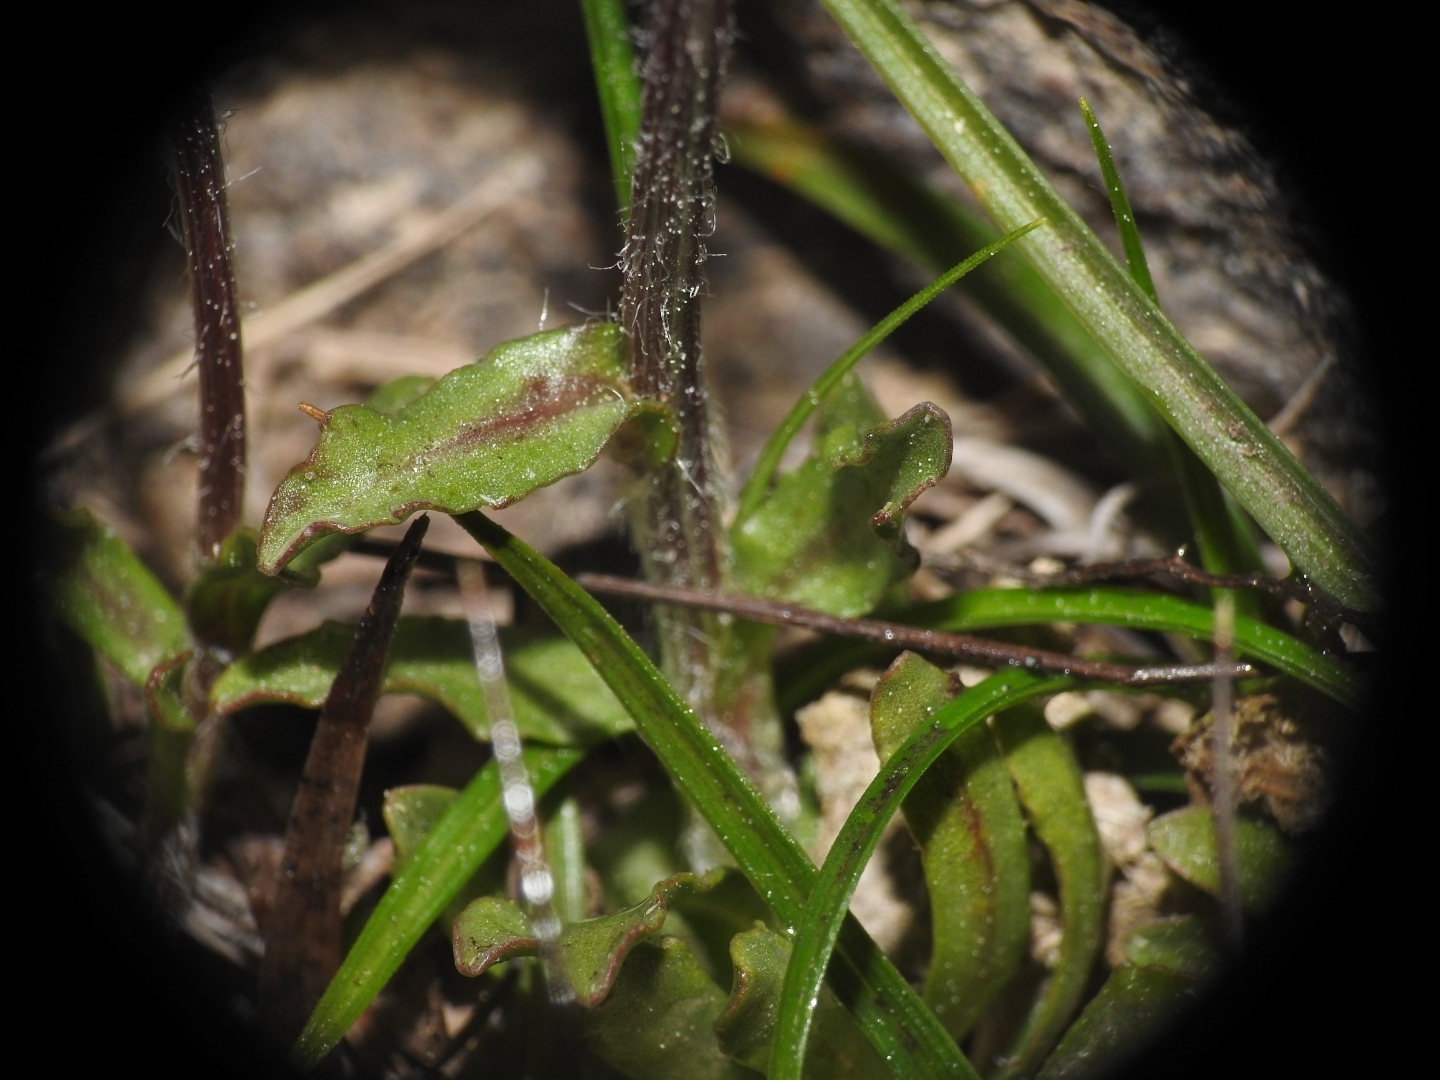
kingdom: Plantae
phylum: Tracheophyta
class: Magnoliopsida
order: Asterales
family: Campanulaceae
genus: Jasione
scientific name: Jasione crispa
